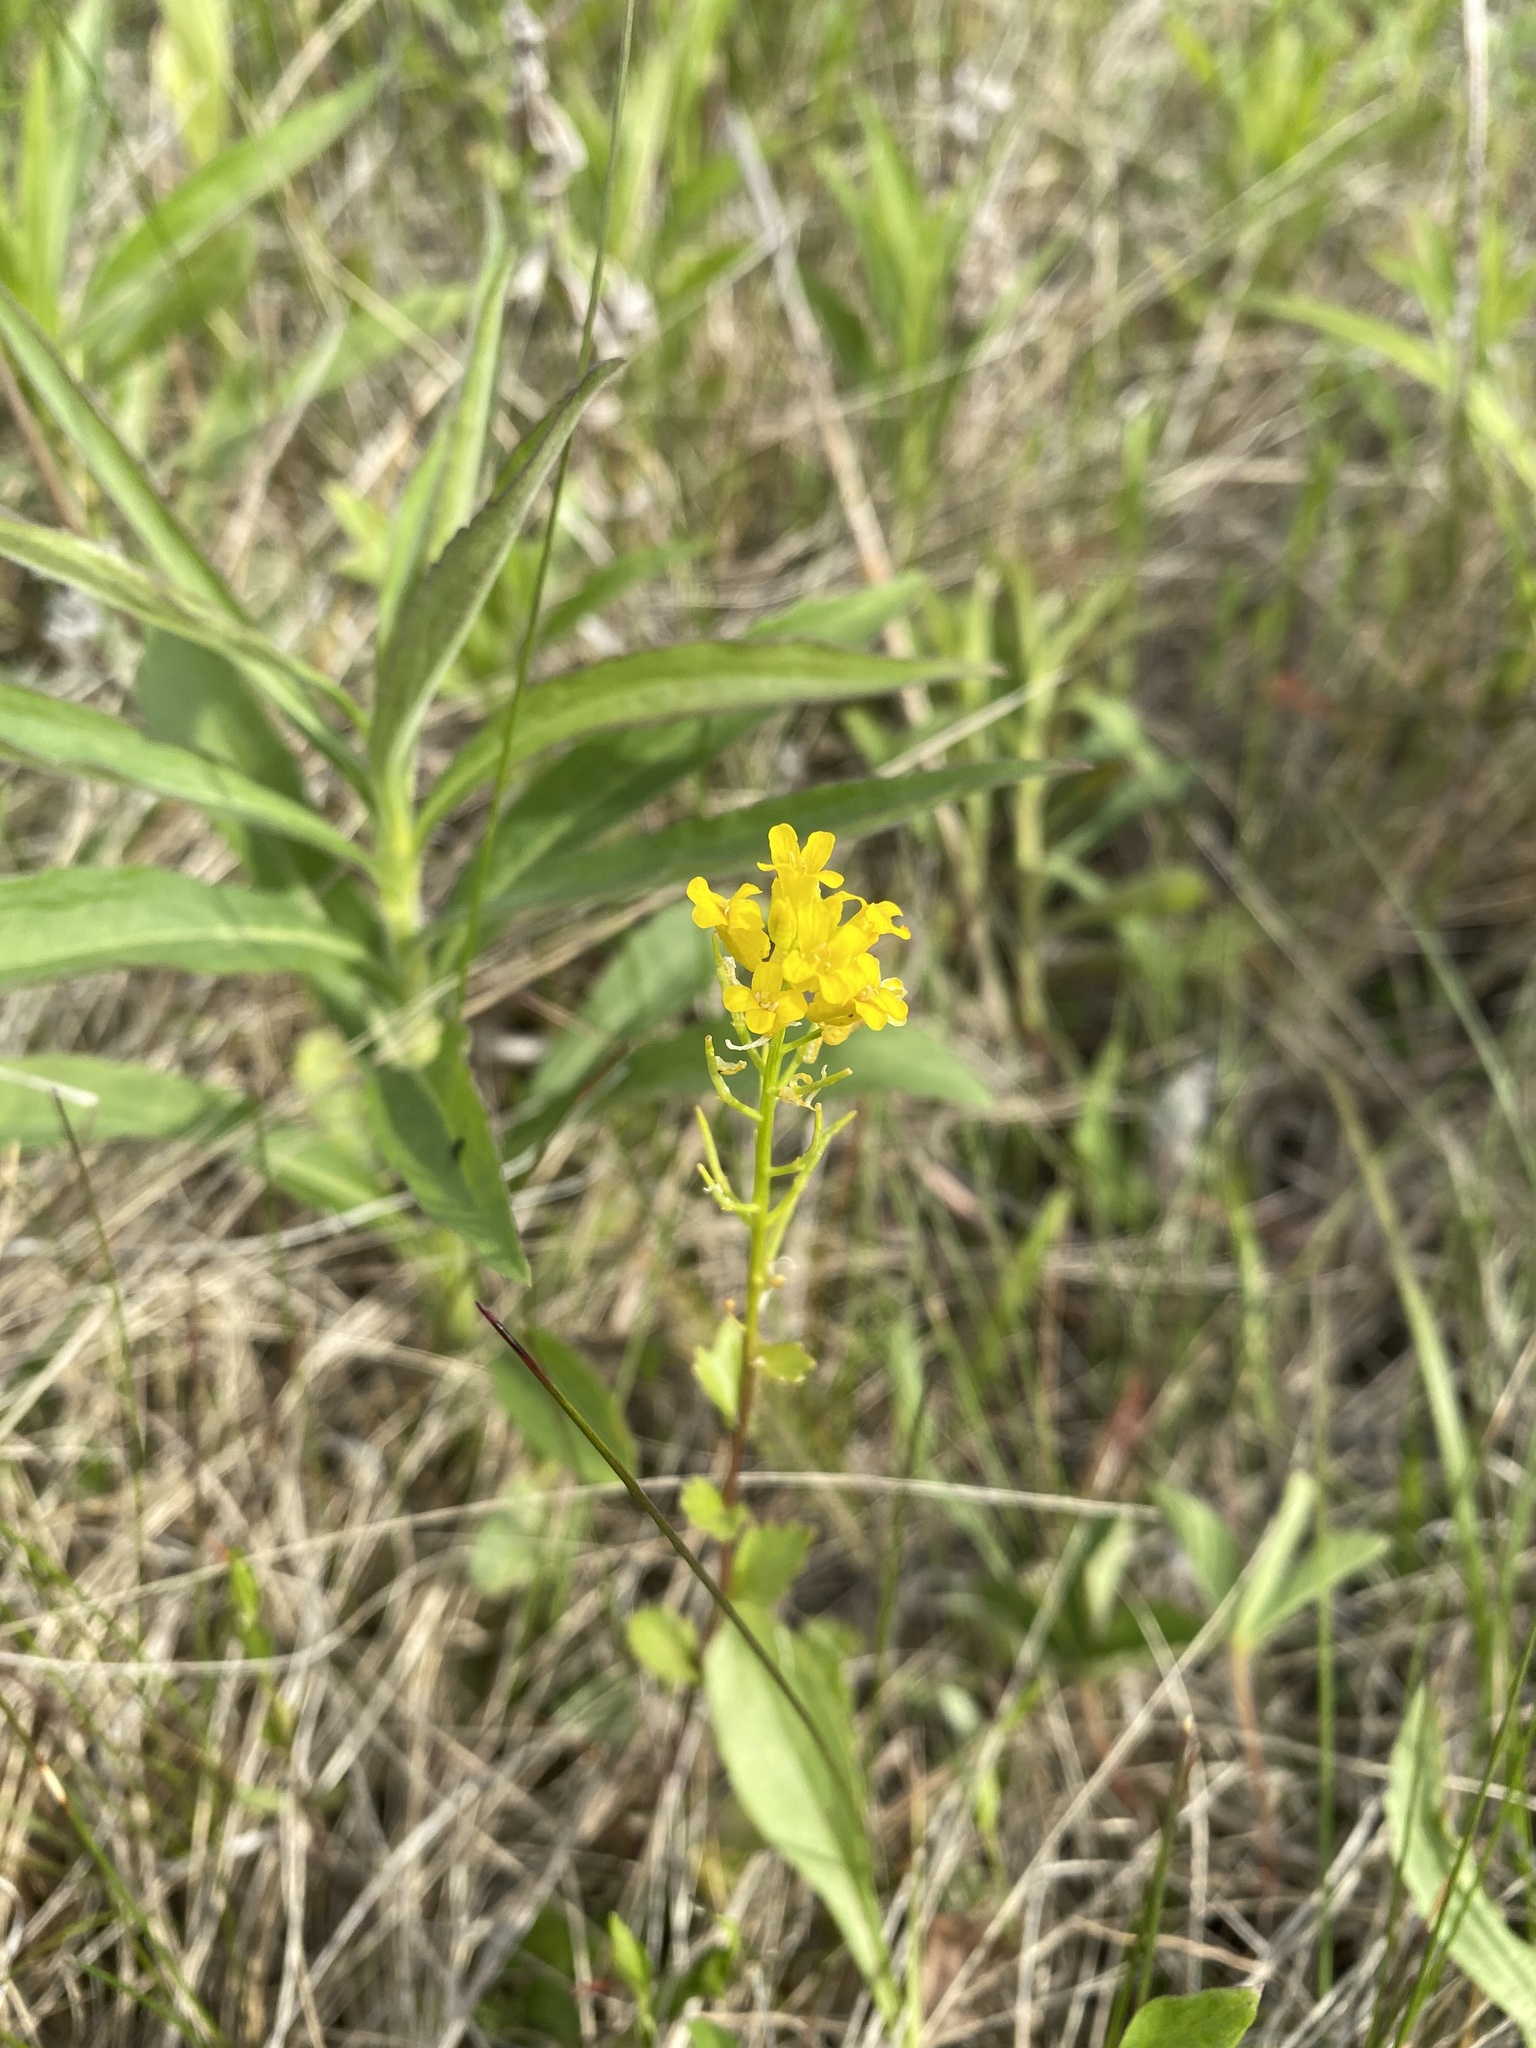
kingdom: Plantae
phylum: Tracheophyta
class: Magnoliopsida
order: Brassicales
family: Brassicaceae
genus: Barbarea
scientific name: Barbarea vulgaris
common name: Cressy-greens
